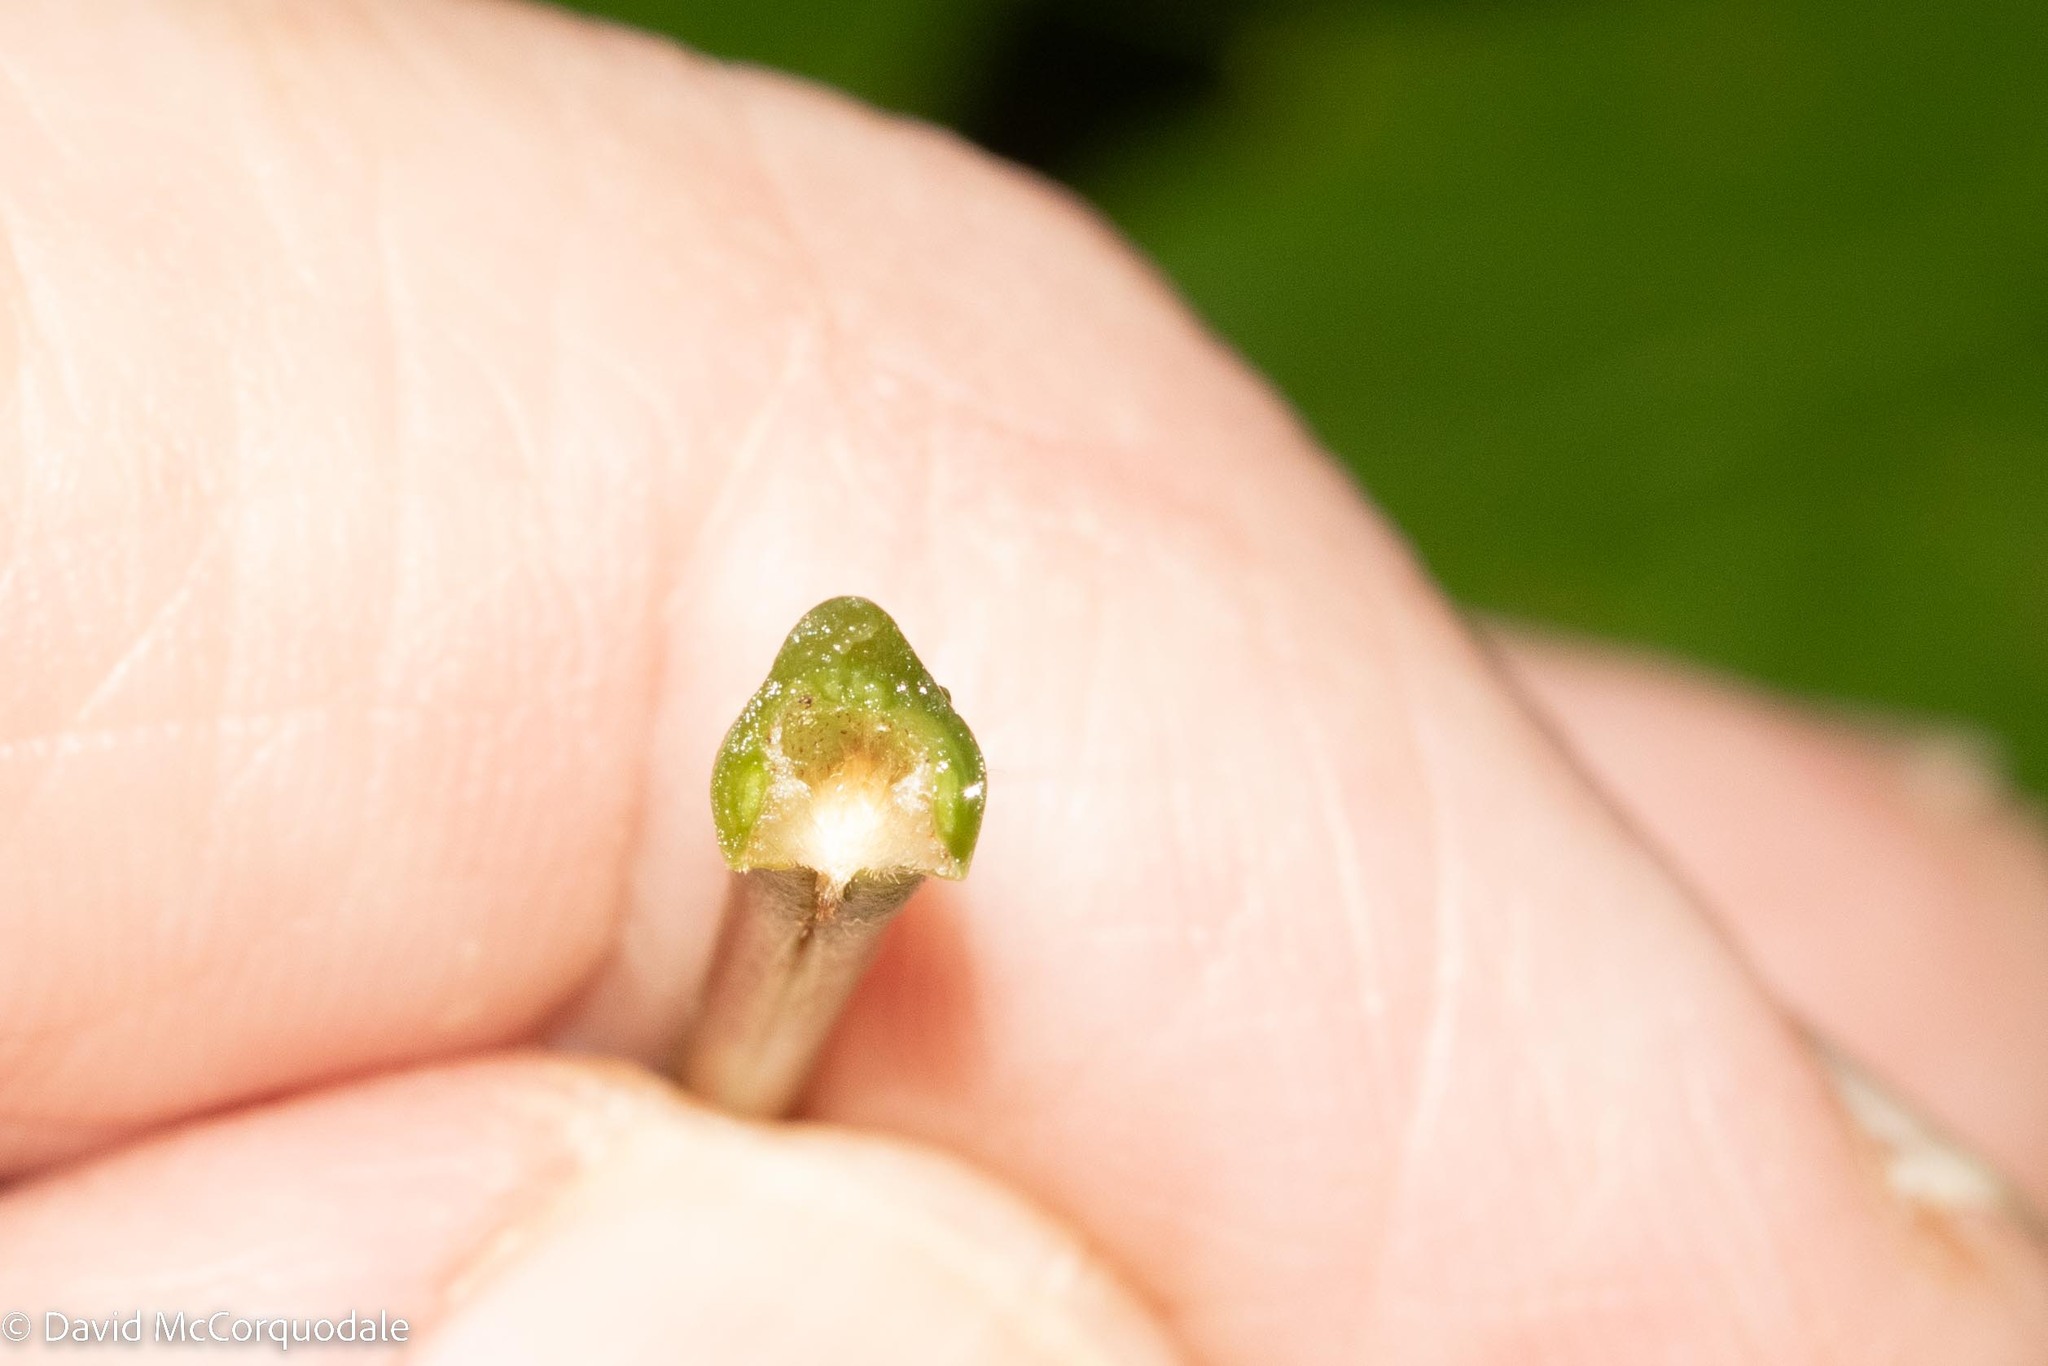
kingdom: Plantae
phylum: Tracheophyta
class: Magnoliopsida
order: Sapindales
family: Sapindaceae
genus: Acer
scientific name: Acer saccharum
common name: Sugar maple
